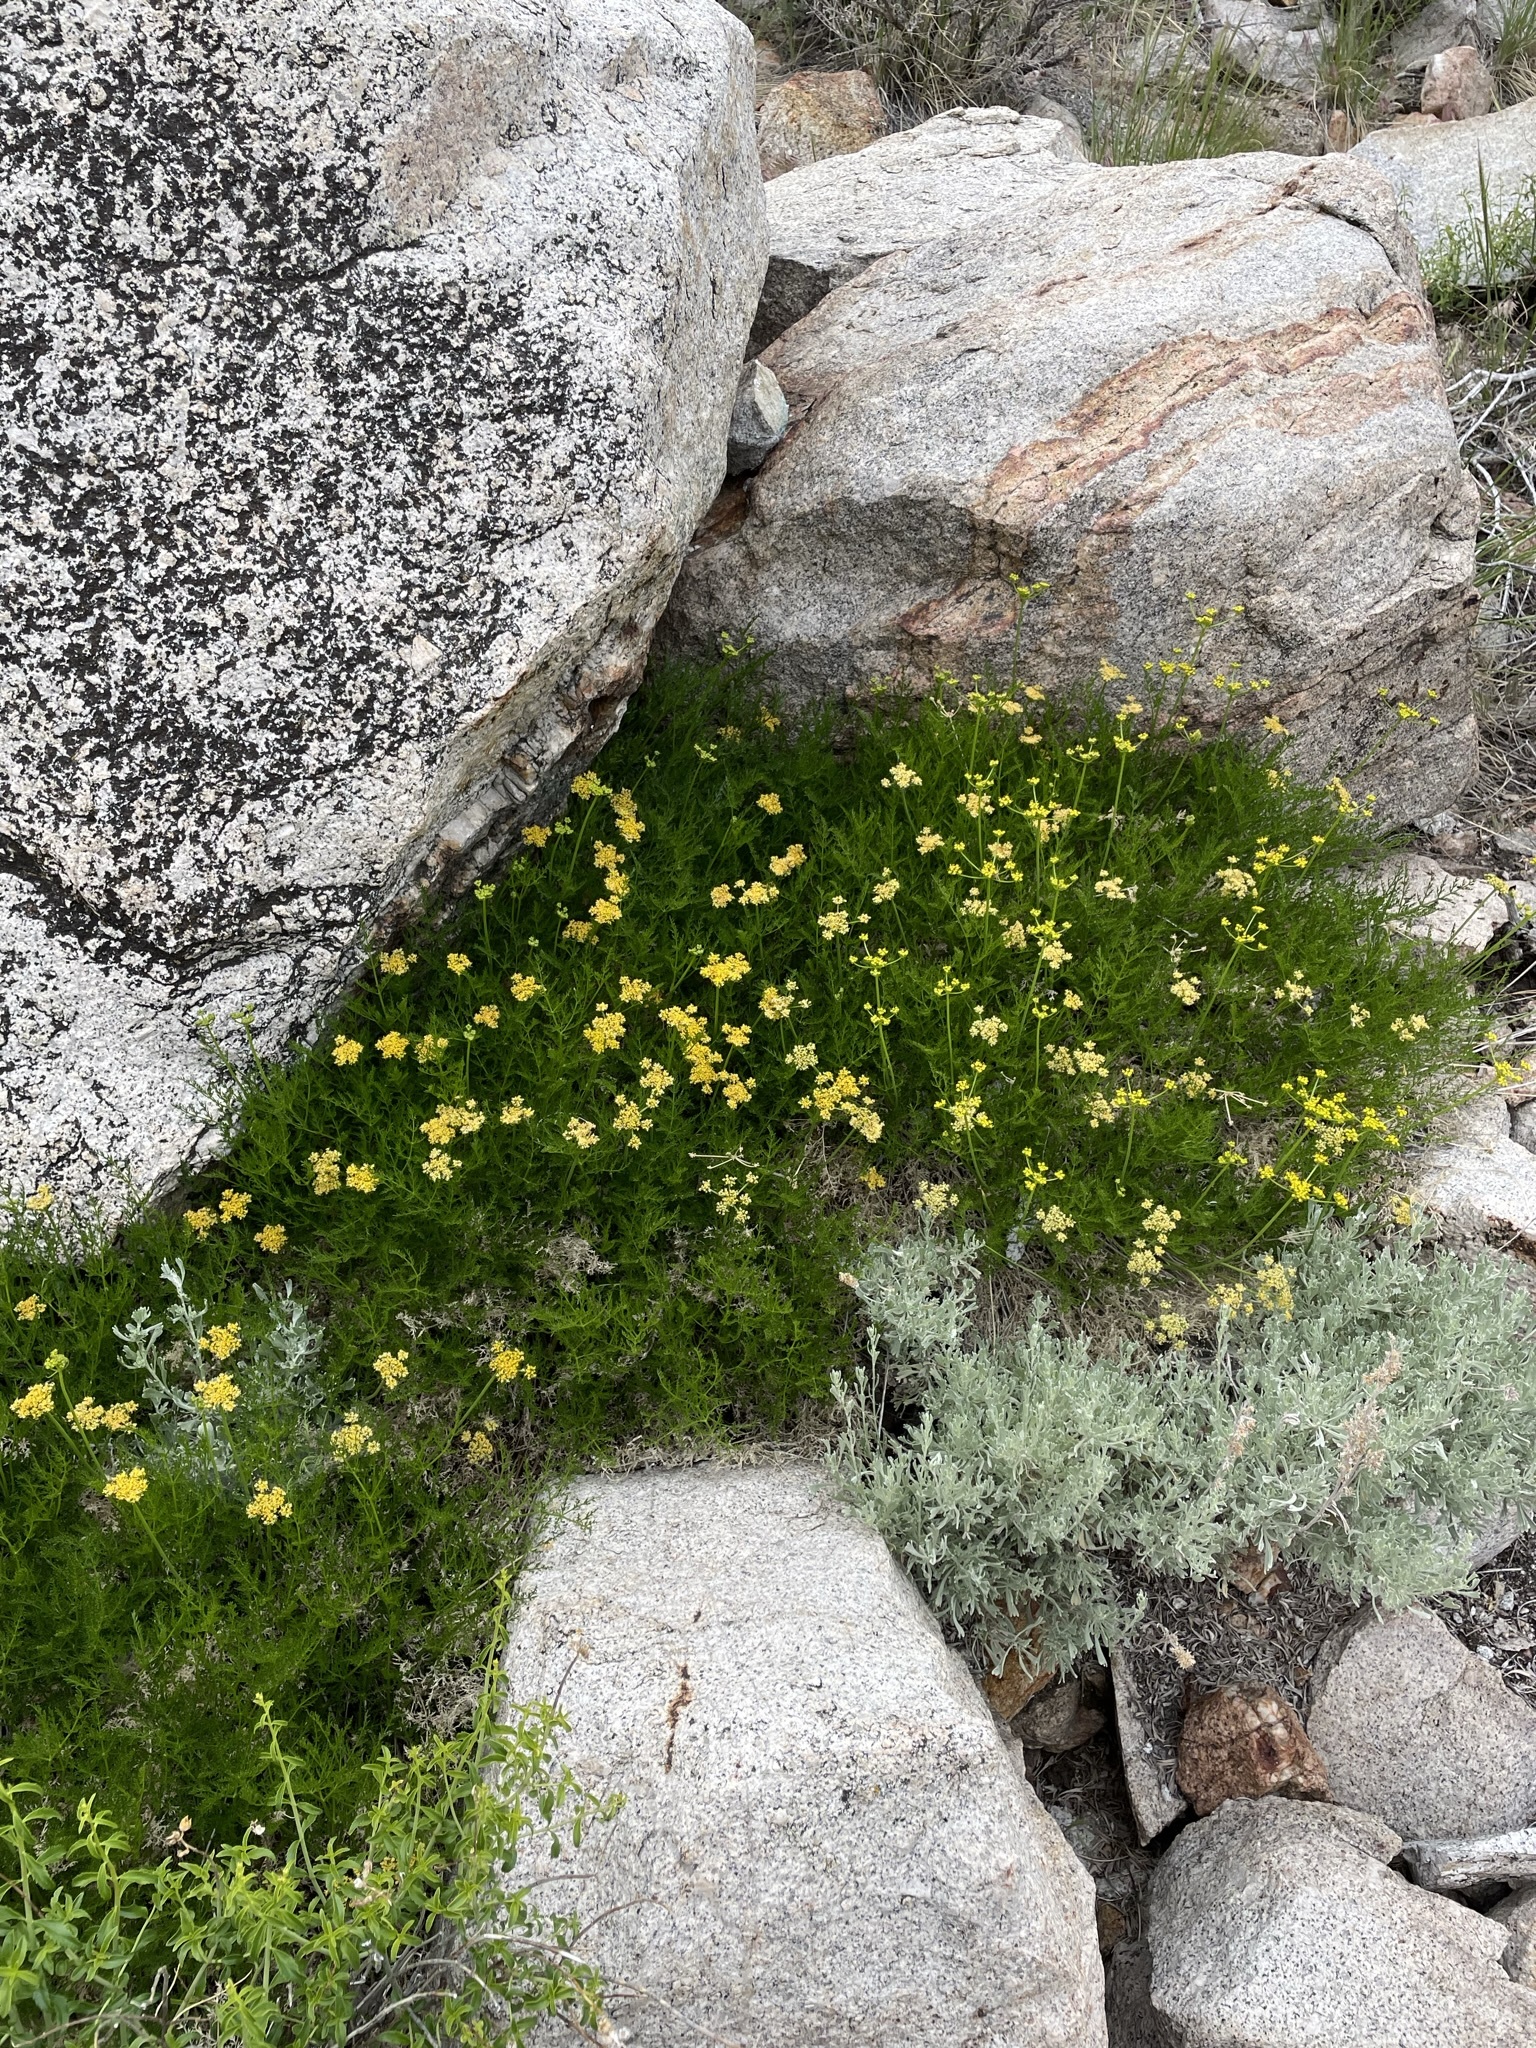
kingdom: Plantae
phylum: Tracheophyta
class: Magnoliopsida
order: Apiales
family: Apiaceae
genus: Pteryxia
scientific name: Pteryxia petraea
